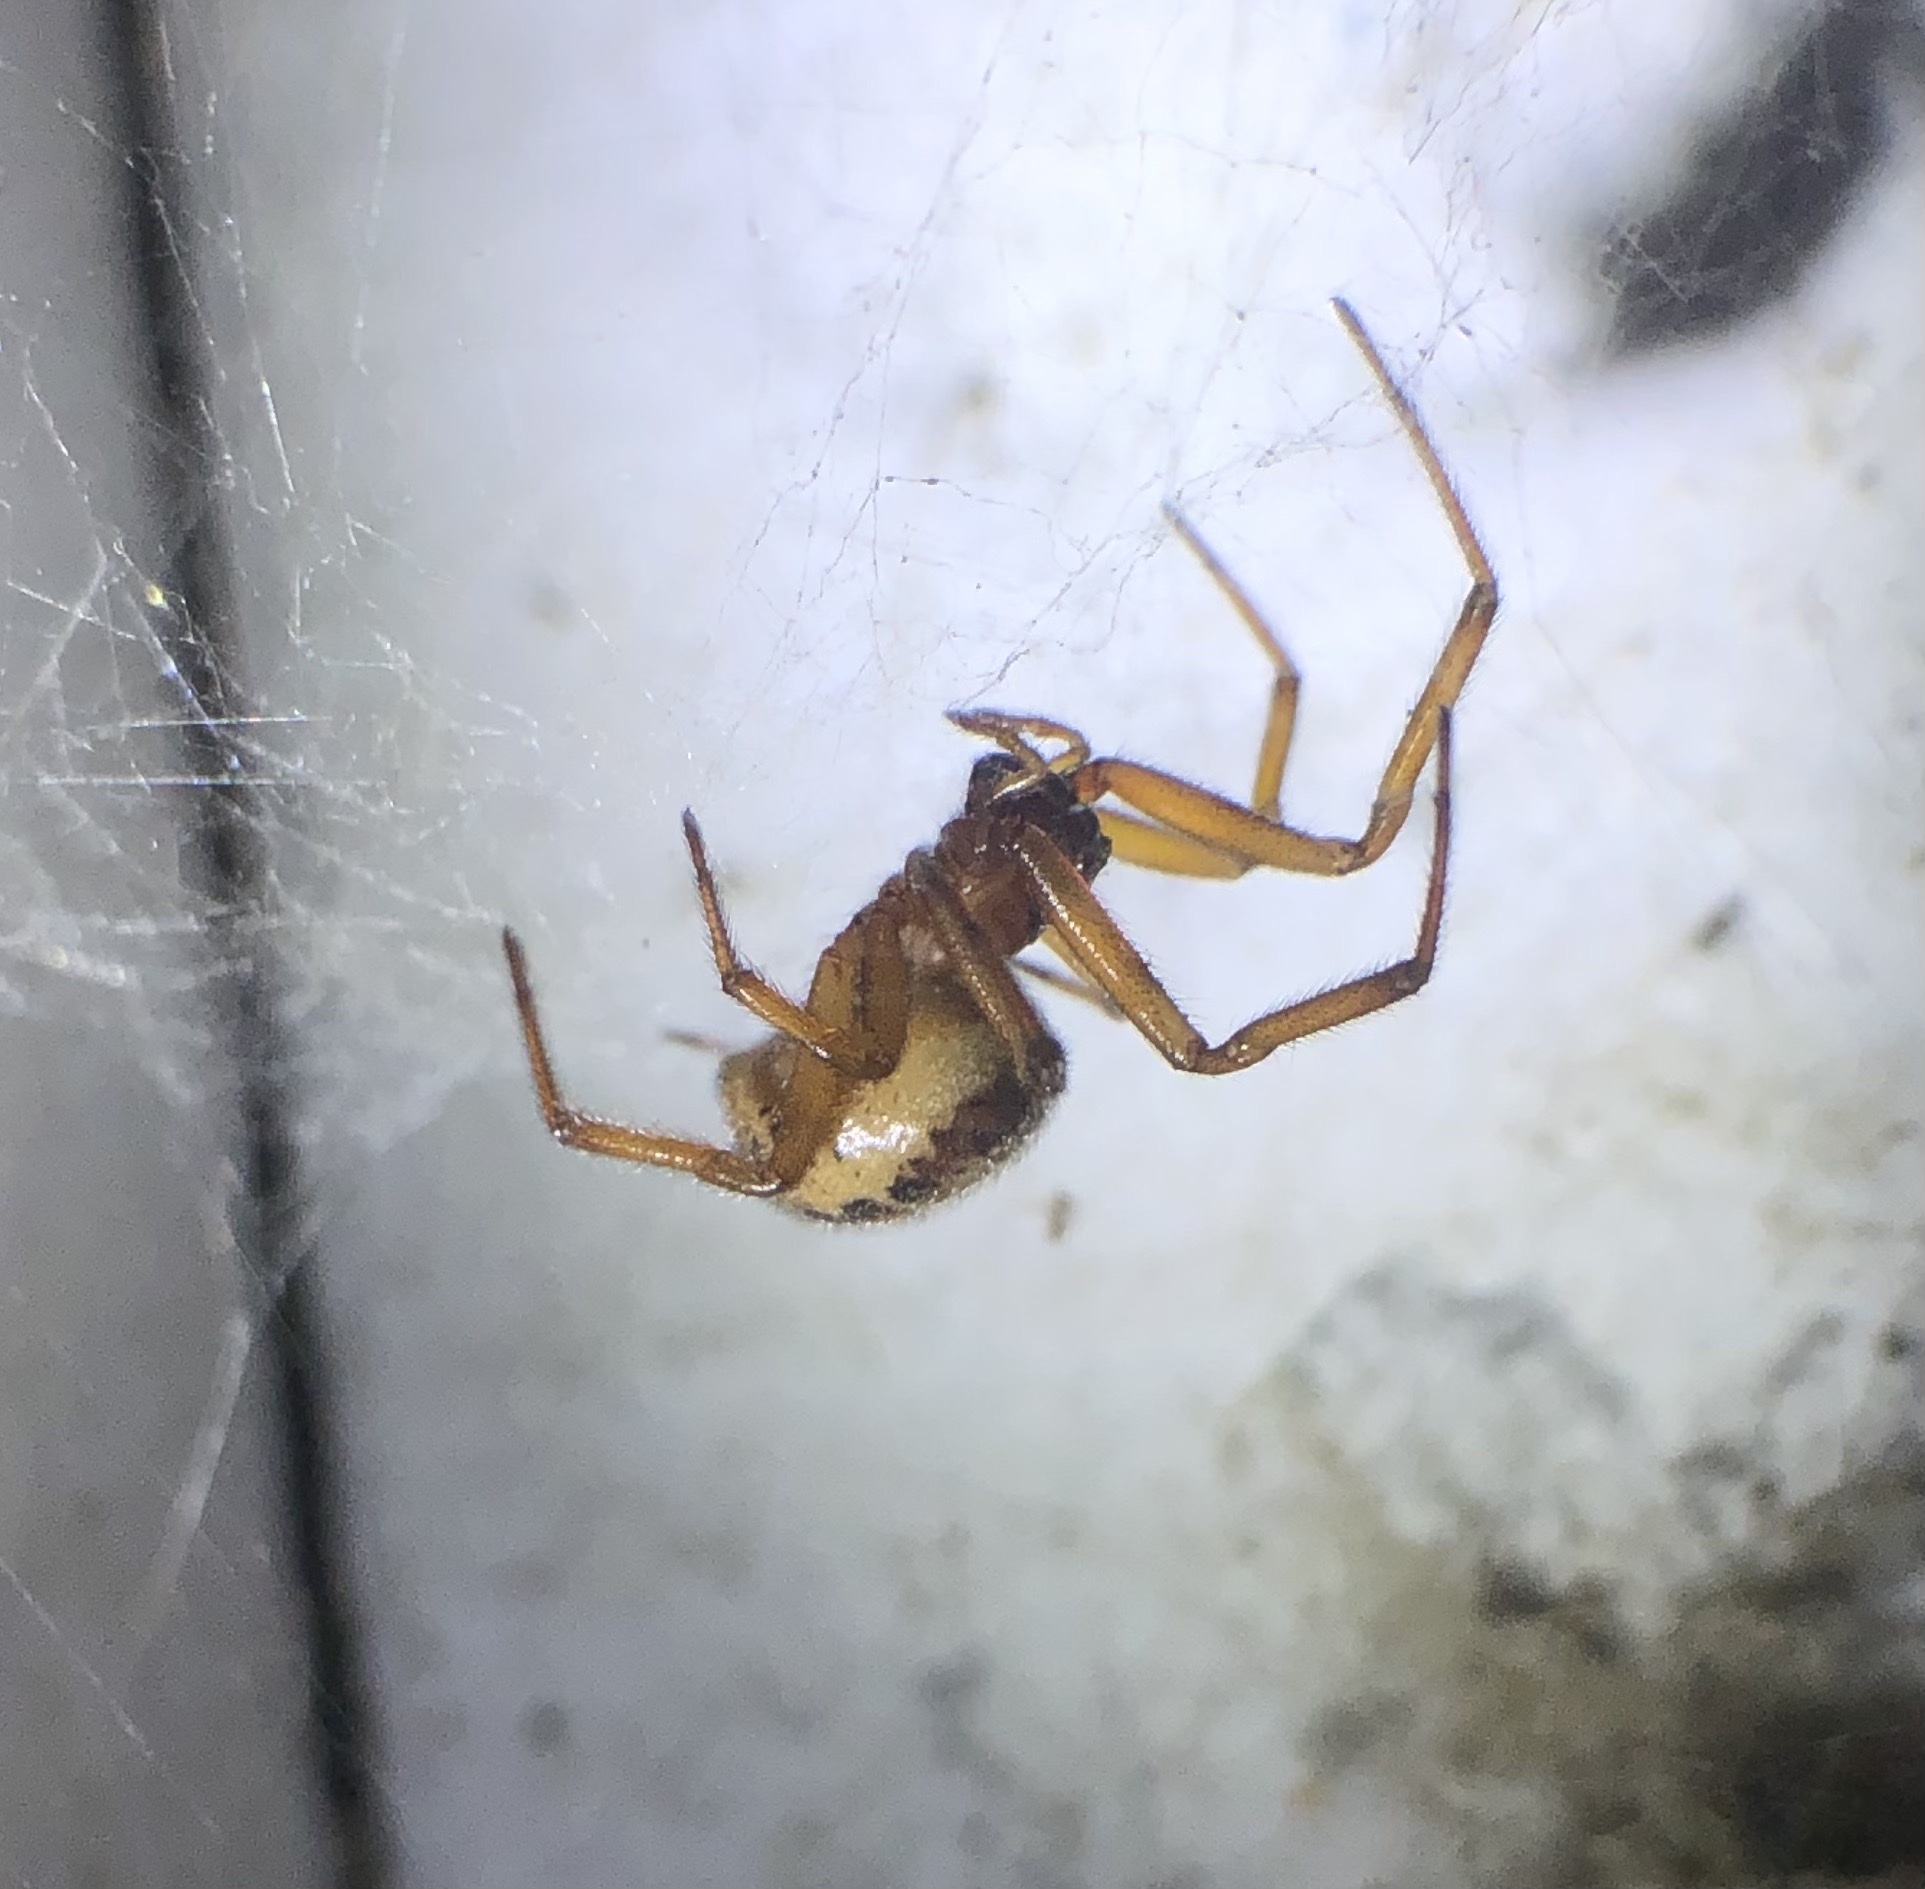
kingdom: Animalia
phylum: Arthropoda
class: Arachnida
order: Araneae
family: Theridiidae
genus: Steatoda
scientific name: Steatoda nobilis
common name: Cobweb weaver
